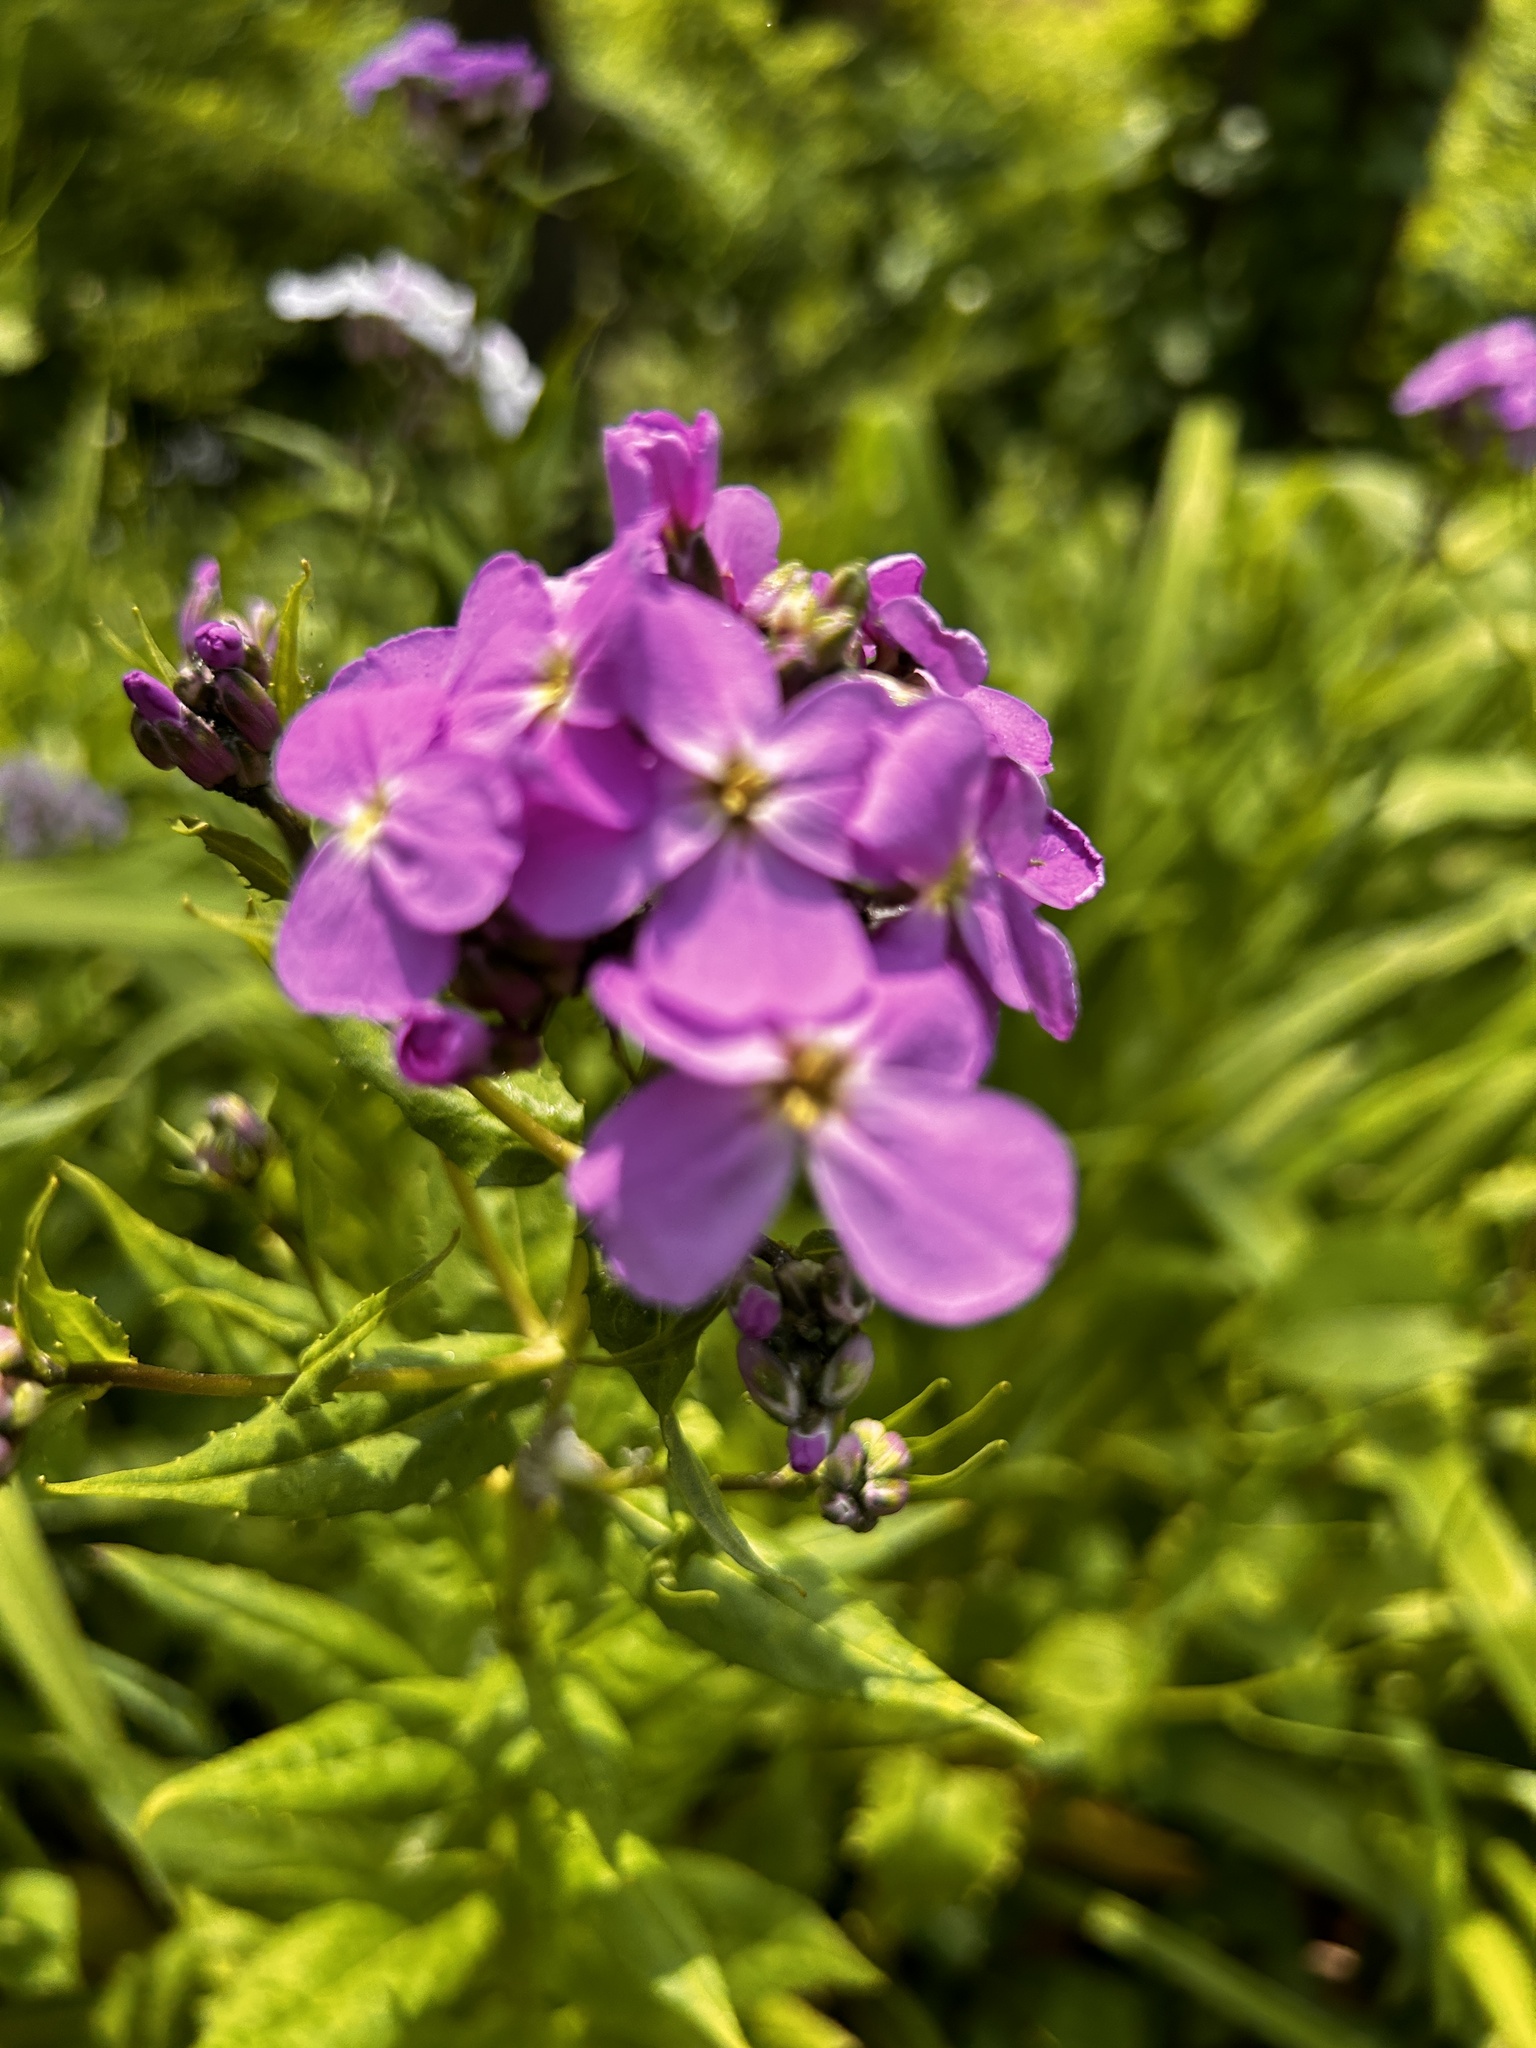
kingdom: Plantae
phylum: Tracheophyta
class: Magnoliopsida
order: Brassicales
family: Brassicaceae
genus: Hesperis
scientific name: Hesperis matronalis
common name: Dame's-violet
